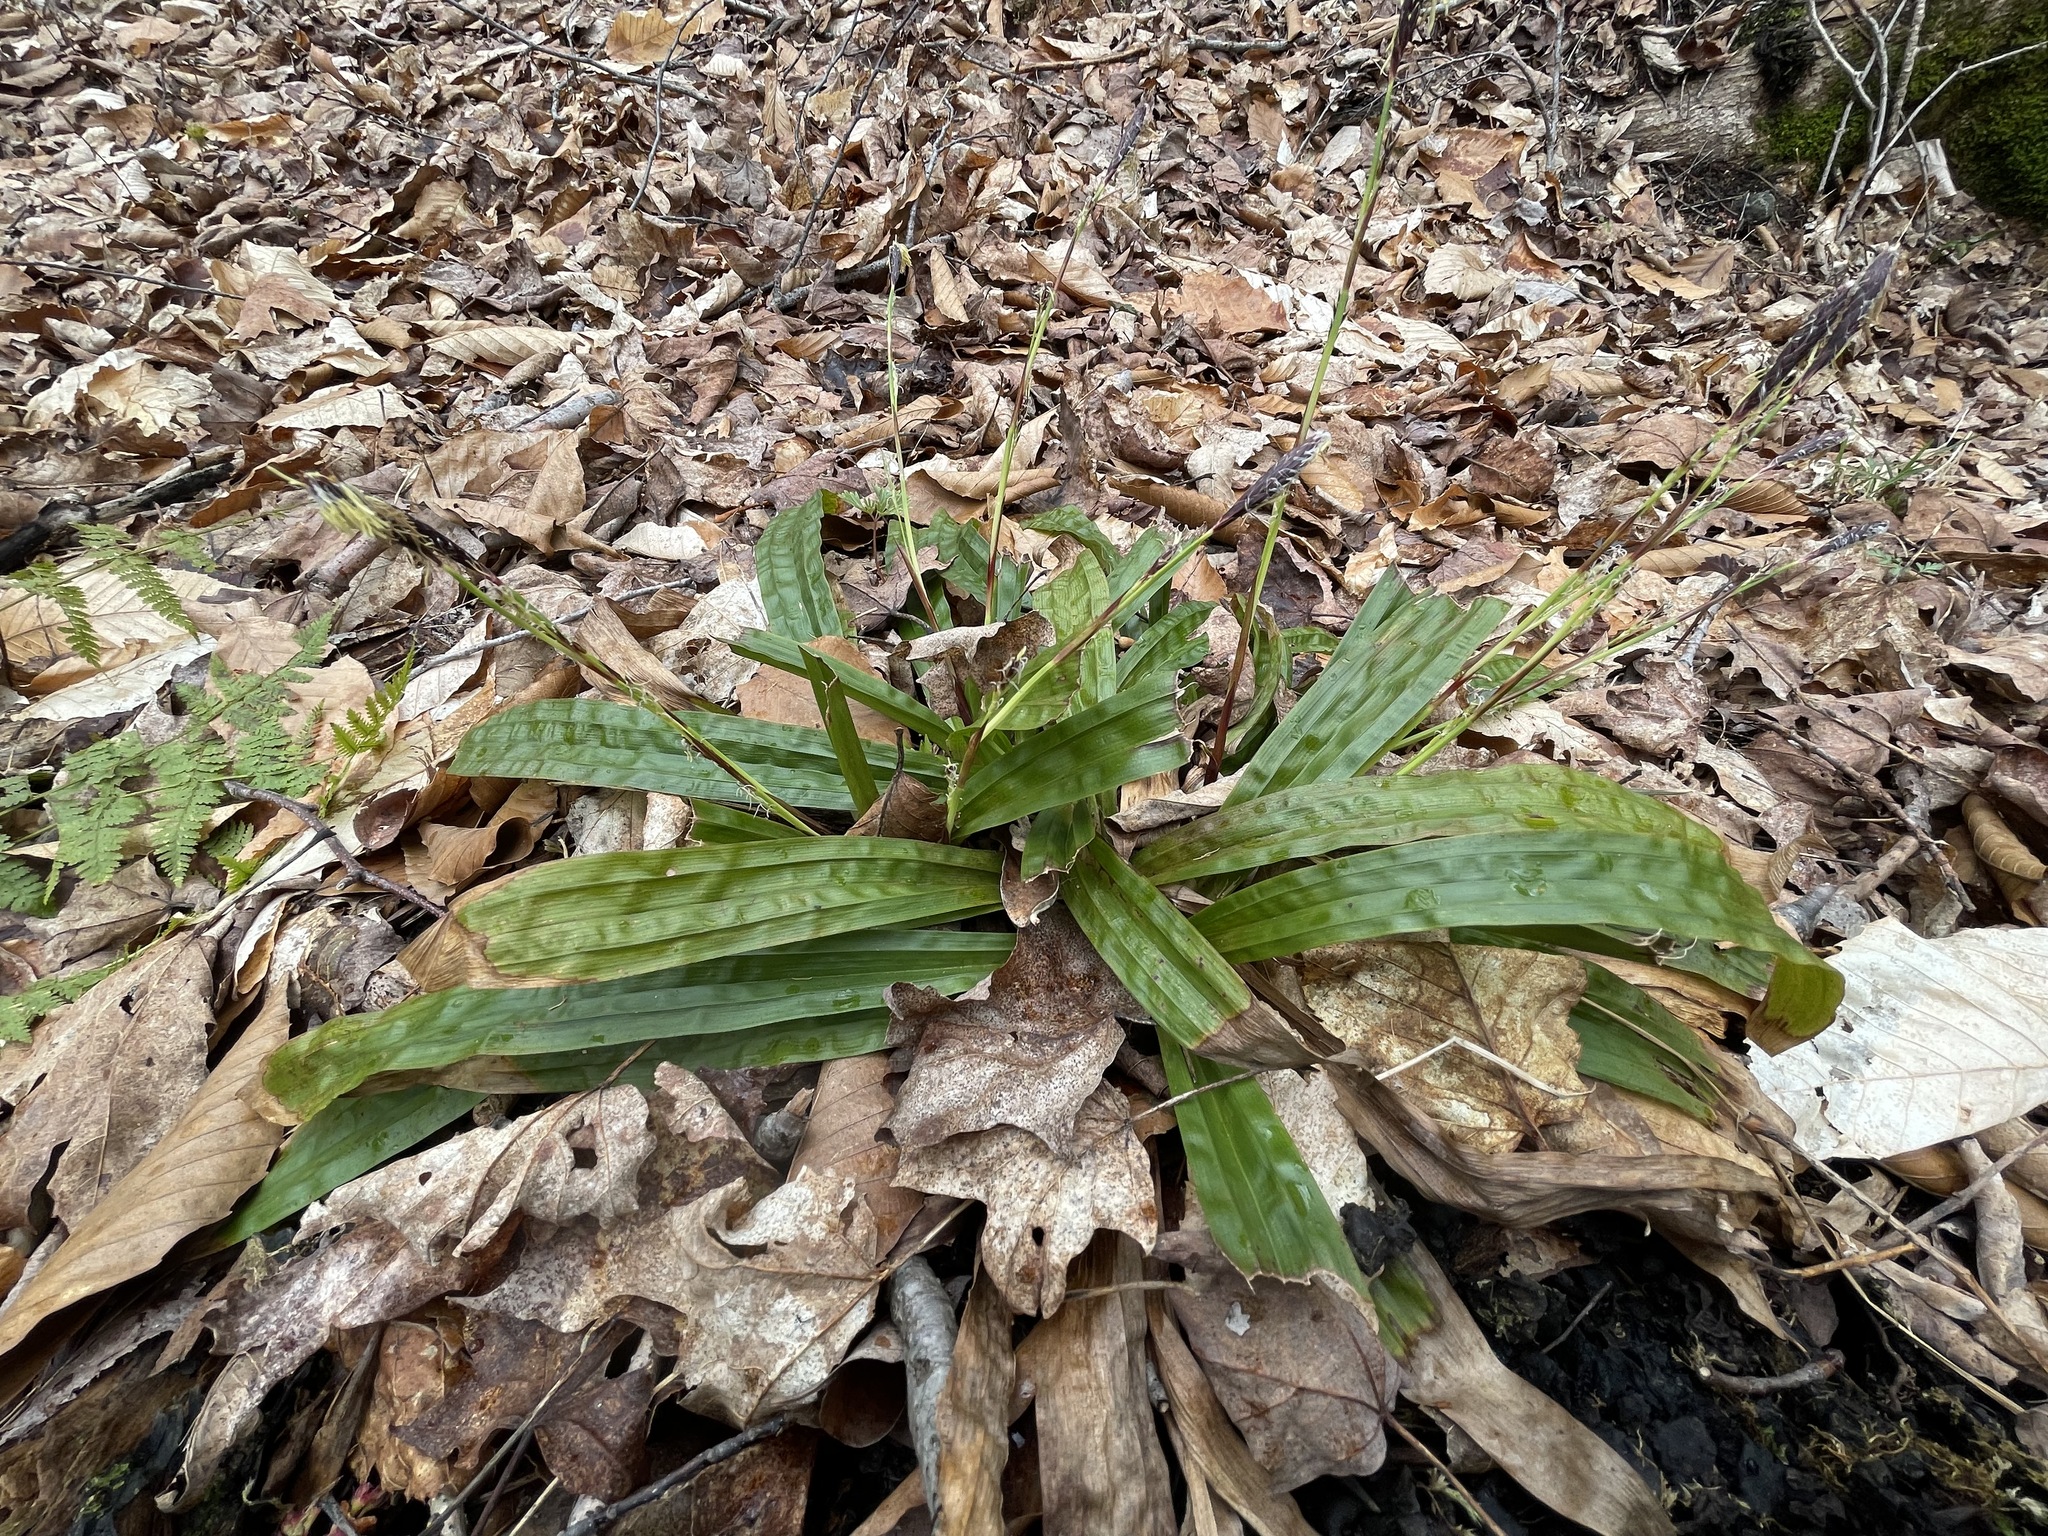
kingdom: Plantae
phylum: Tracheophyta
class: Liliopsida
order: Poales
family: Cyperaceae
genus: Carex
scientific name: Carex plantaginea
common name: Plantain-leaved sedge
